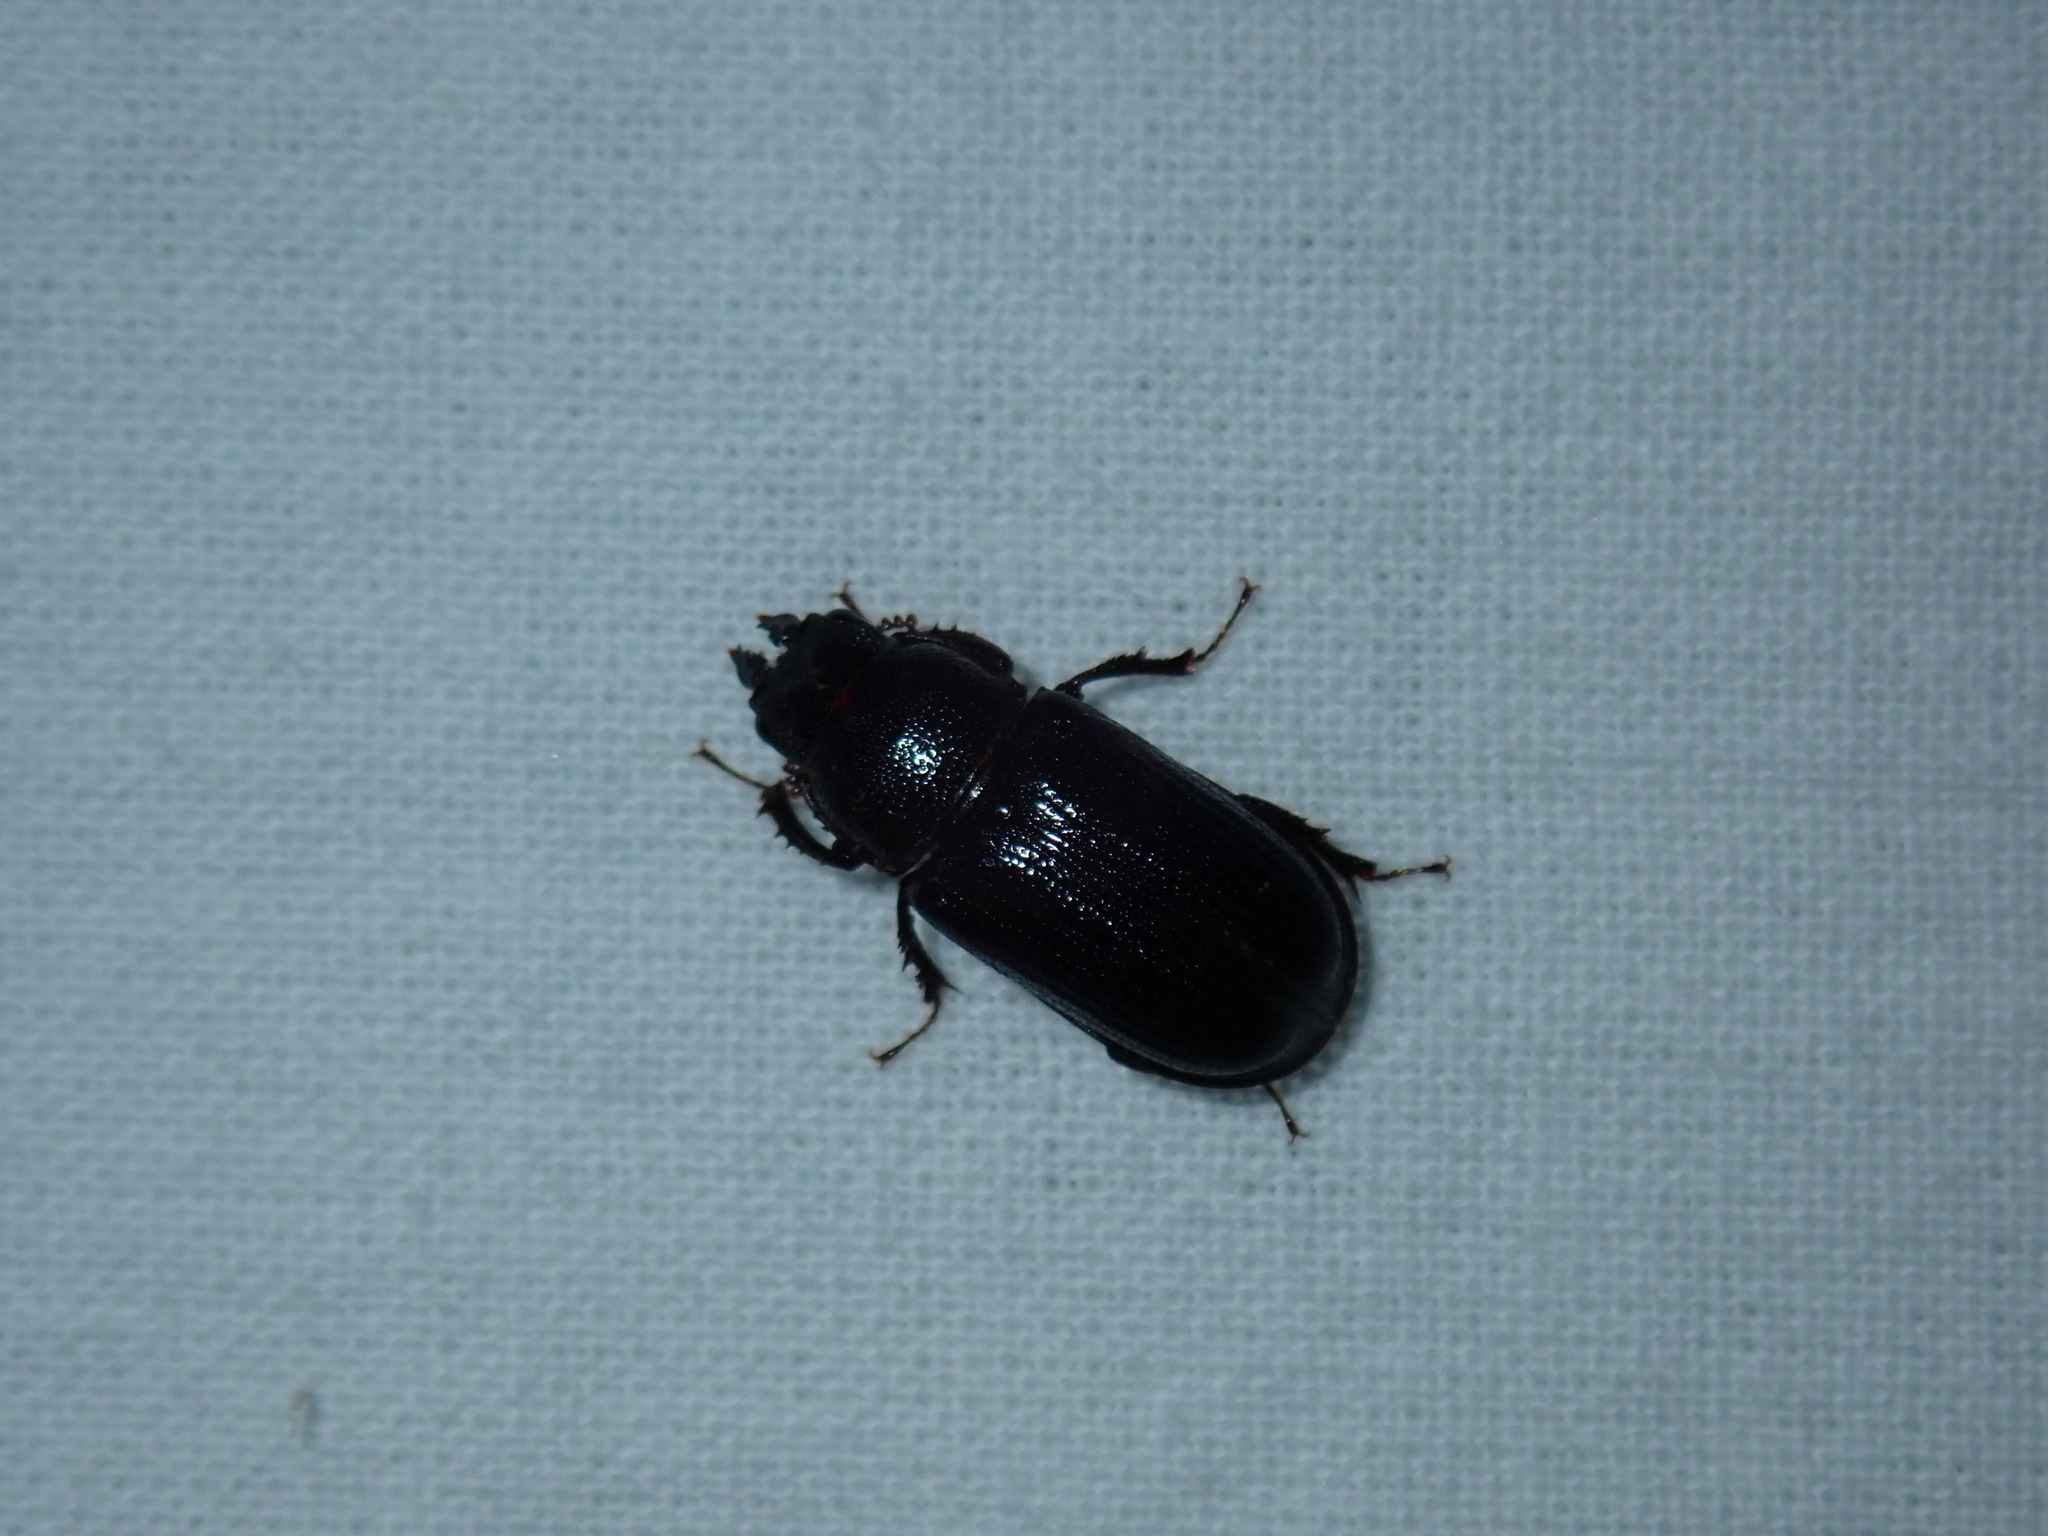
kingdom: Animalia
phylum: Arthropoda
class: Insecta
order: Coleoptera
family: Lucanidae
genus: Ceruchus
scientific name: Ceruchus piceus
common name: Red-rot decay stag beetle
